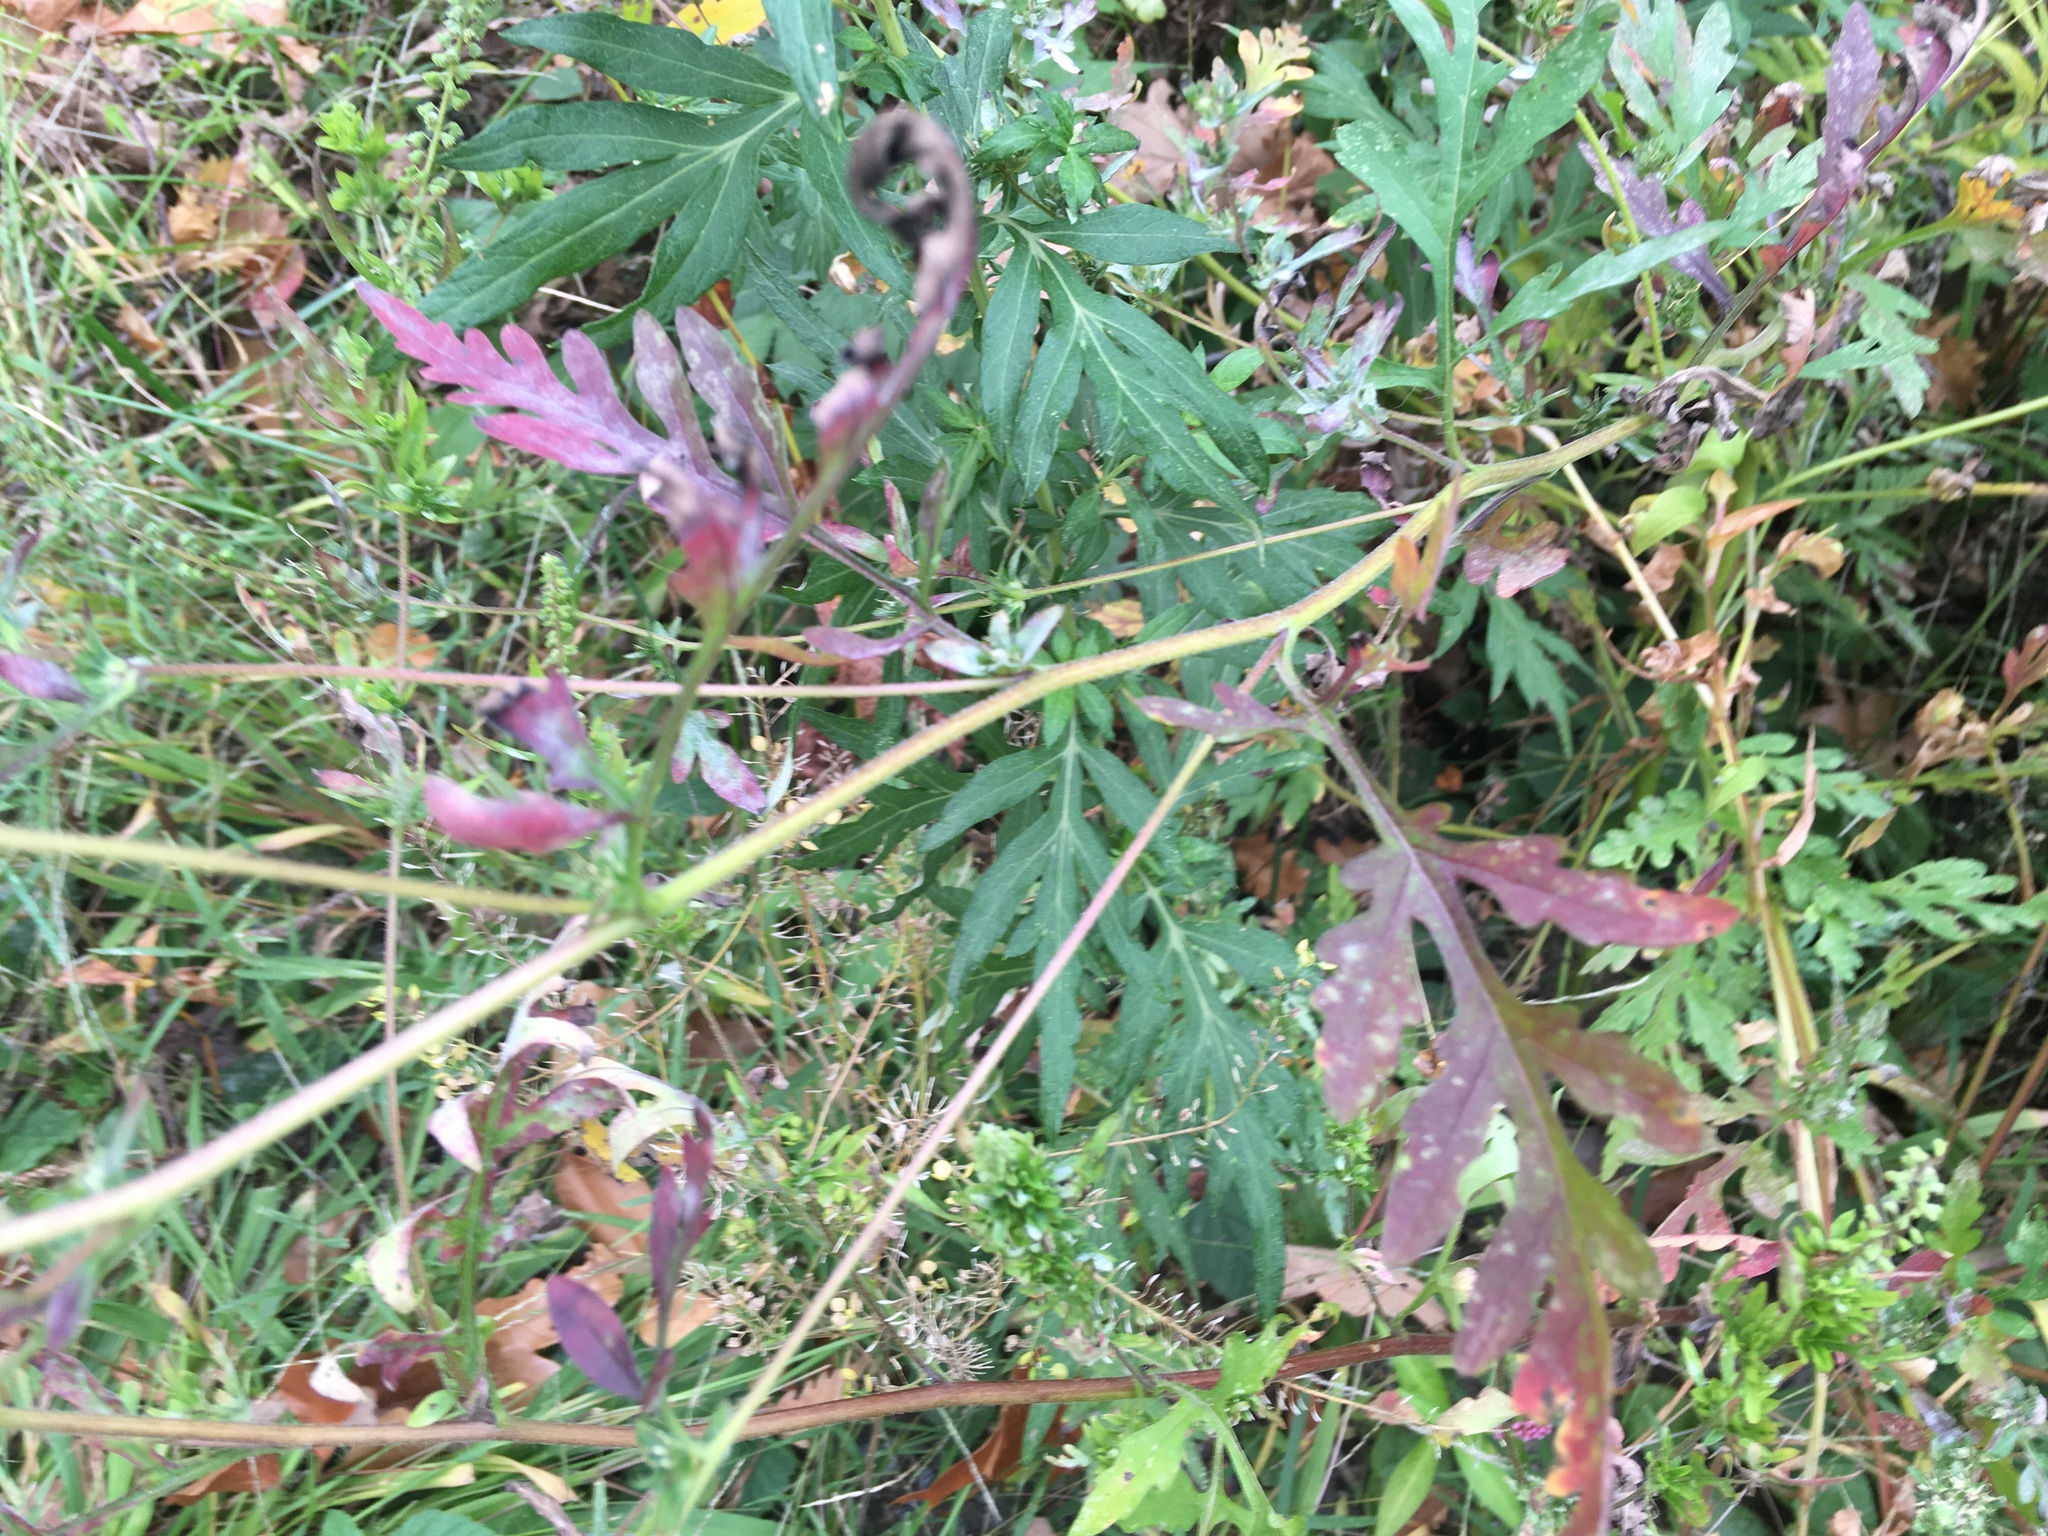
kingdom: Plantae
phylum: Tracheophyta
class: Magnoliopsida
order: Asterales
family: Asteraceae
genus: Artemisia
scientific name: Artemisia vulgaris
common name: Mugwort
